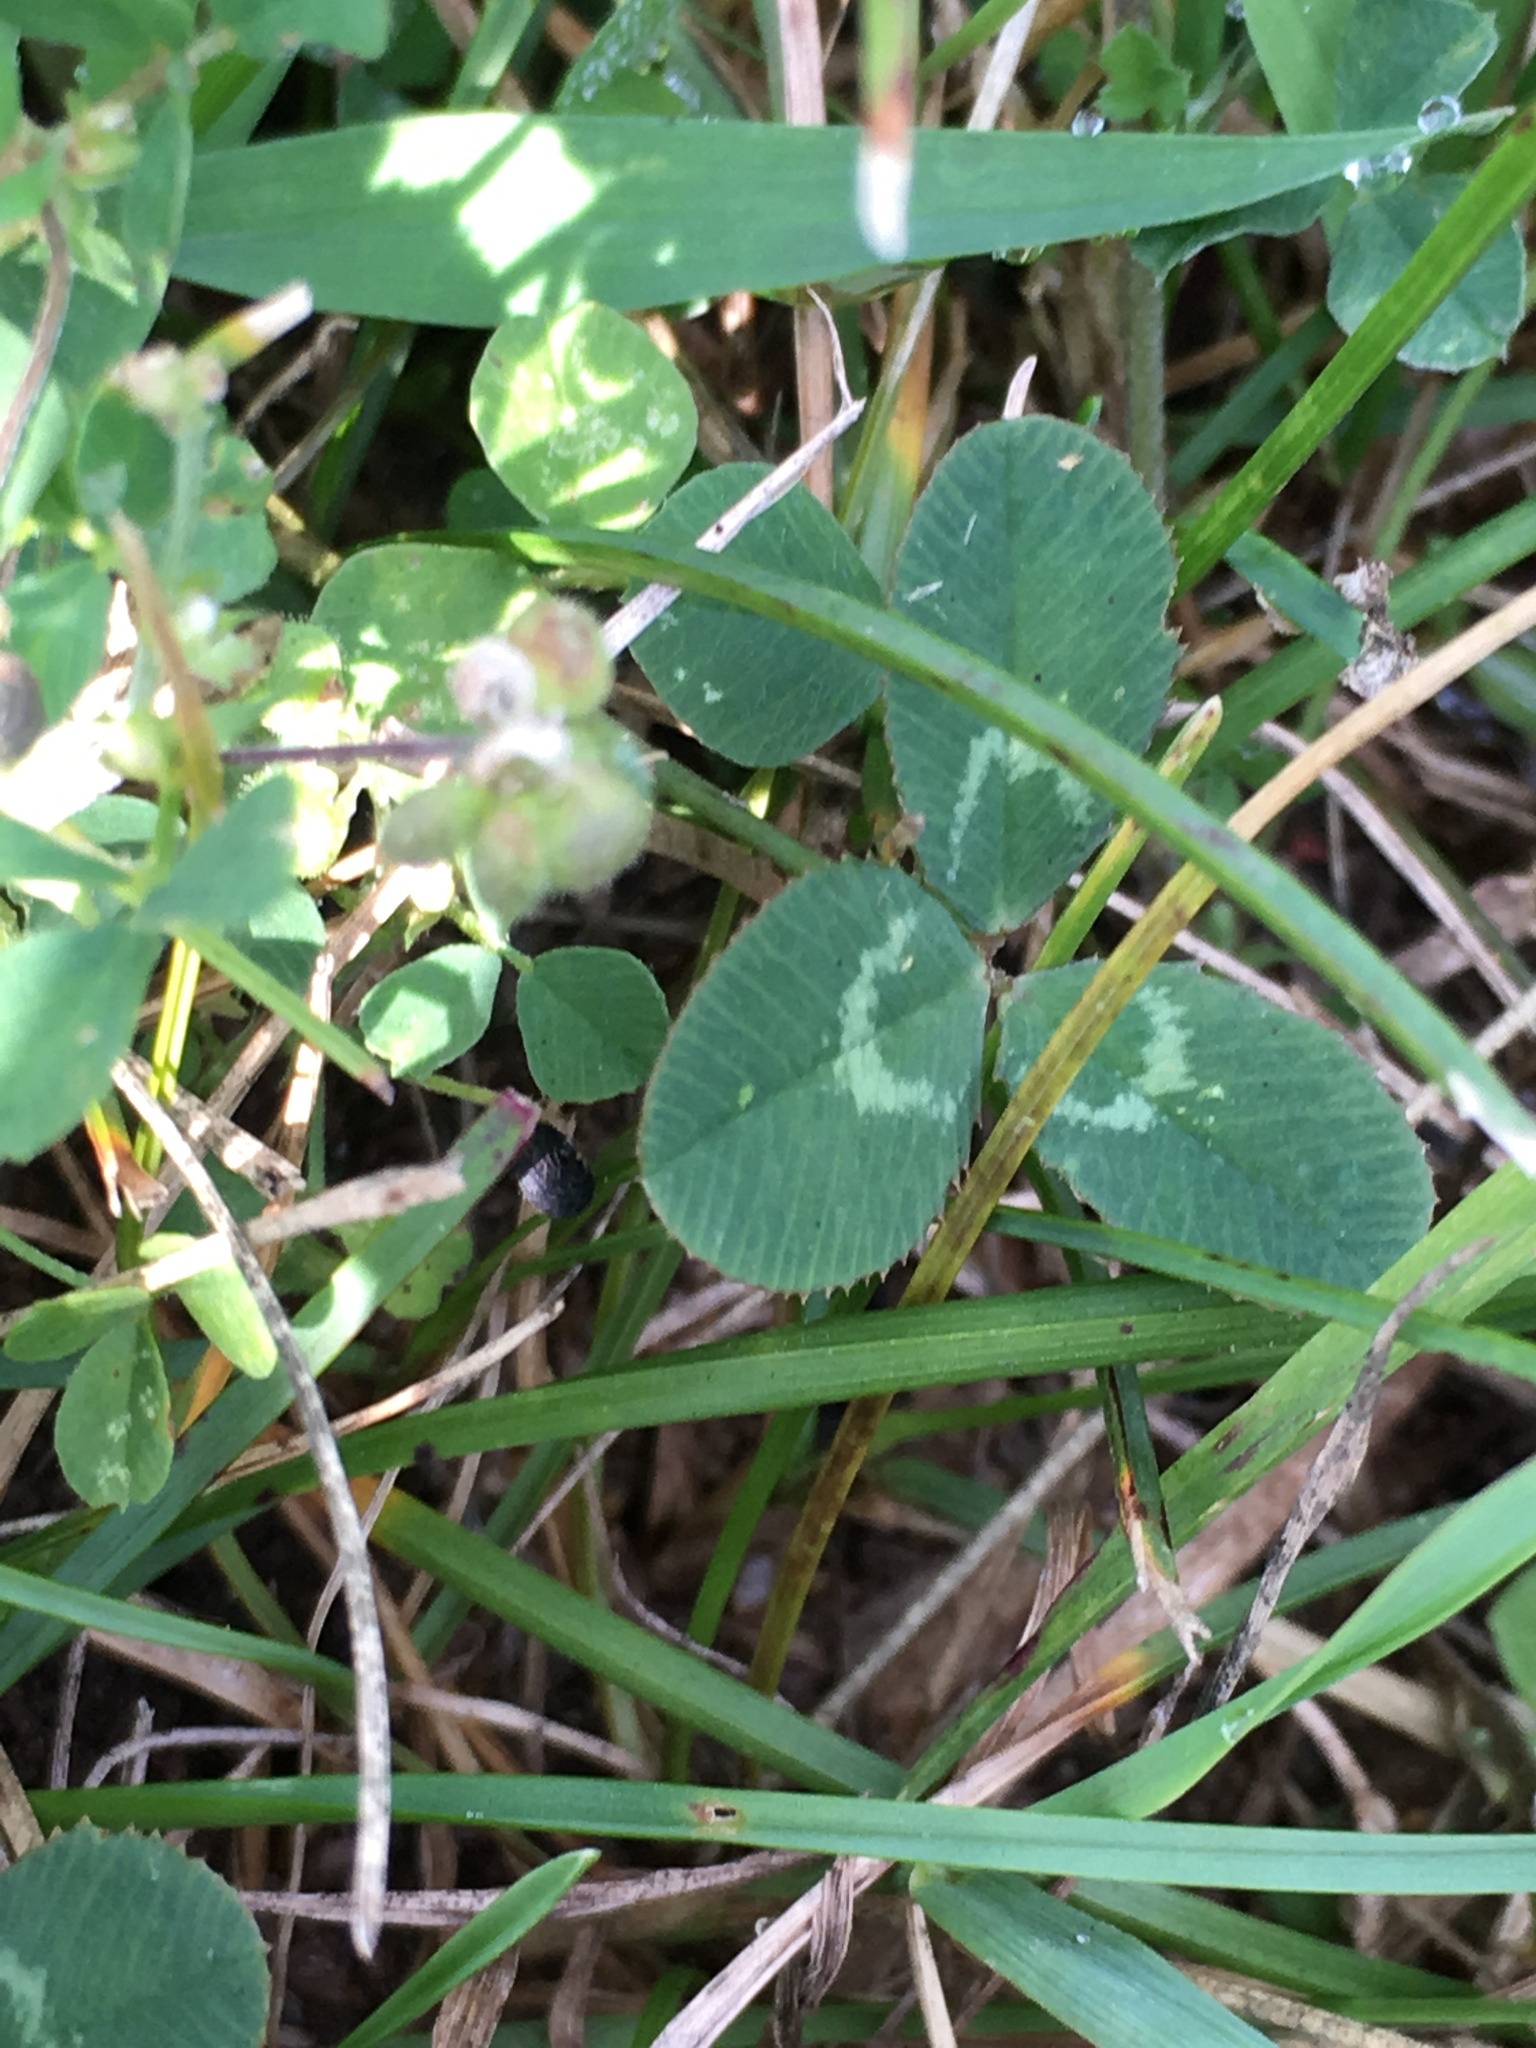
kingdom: Plantae
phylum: Tracheophyta
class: Magnoliopsida
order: Fabales
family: Fabaceae
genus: Trifolium
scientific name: Trifolium repens
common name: White clover
